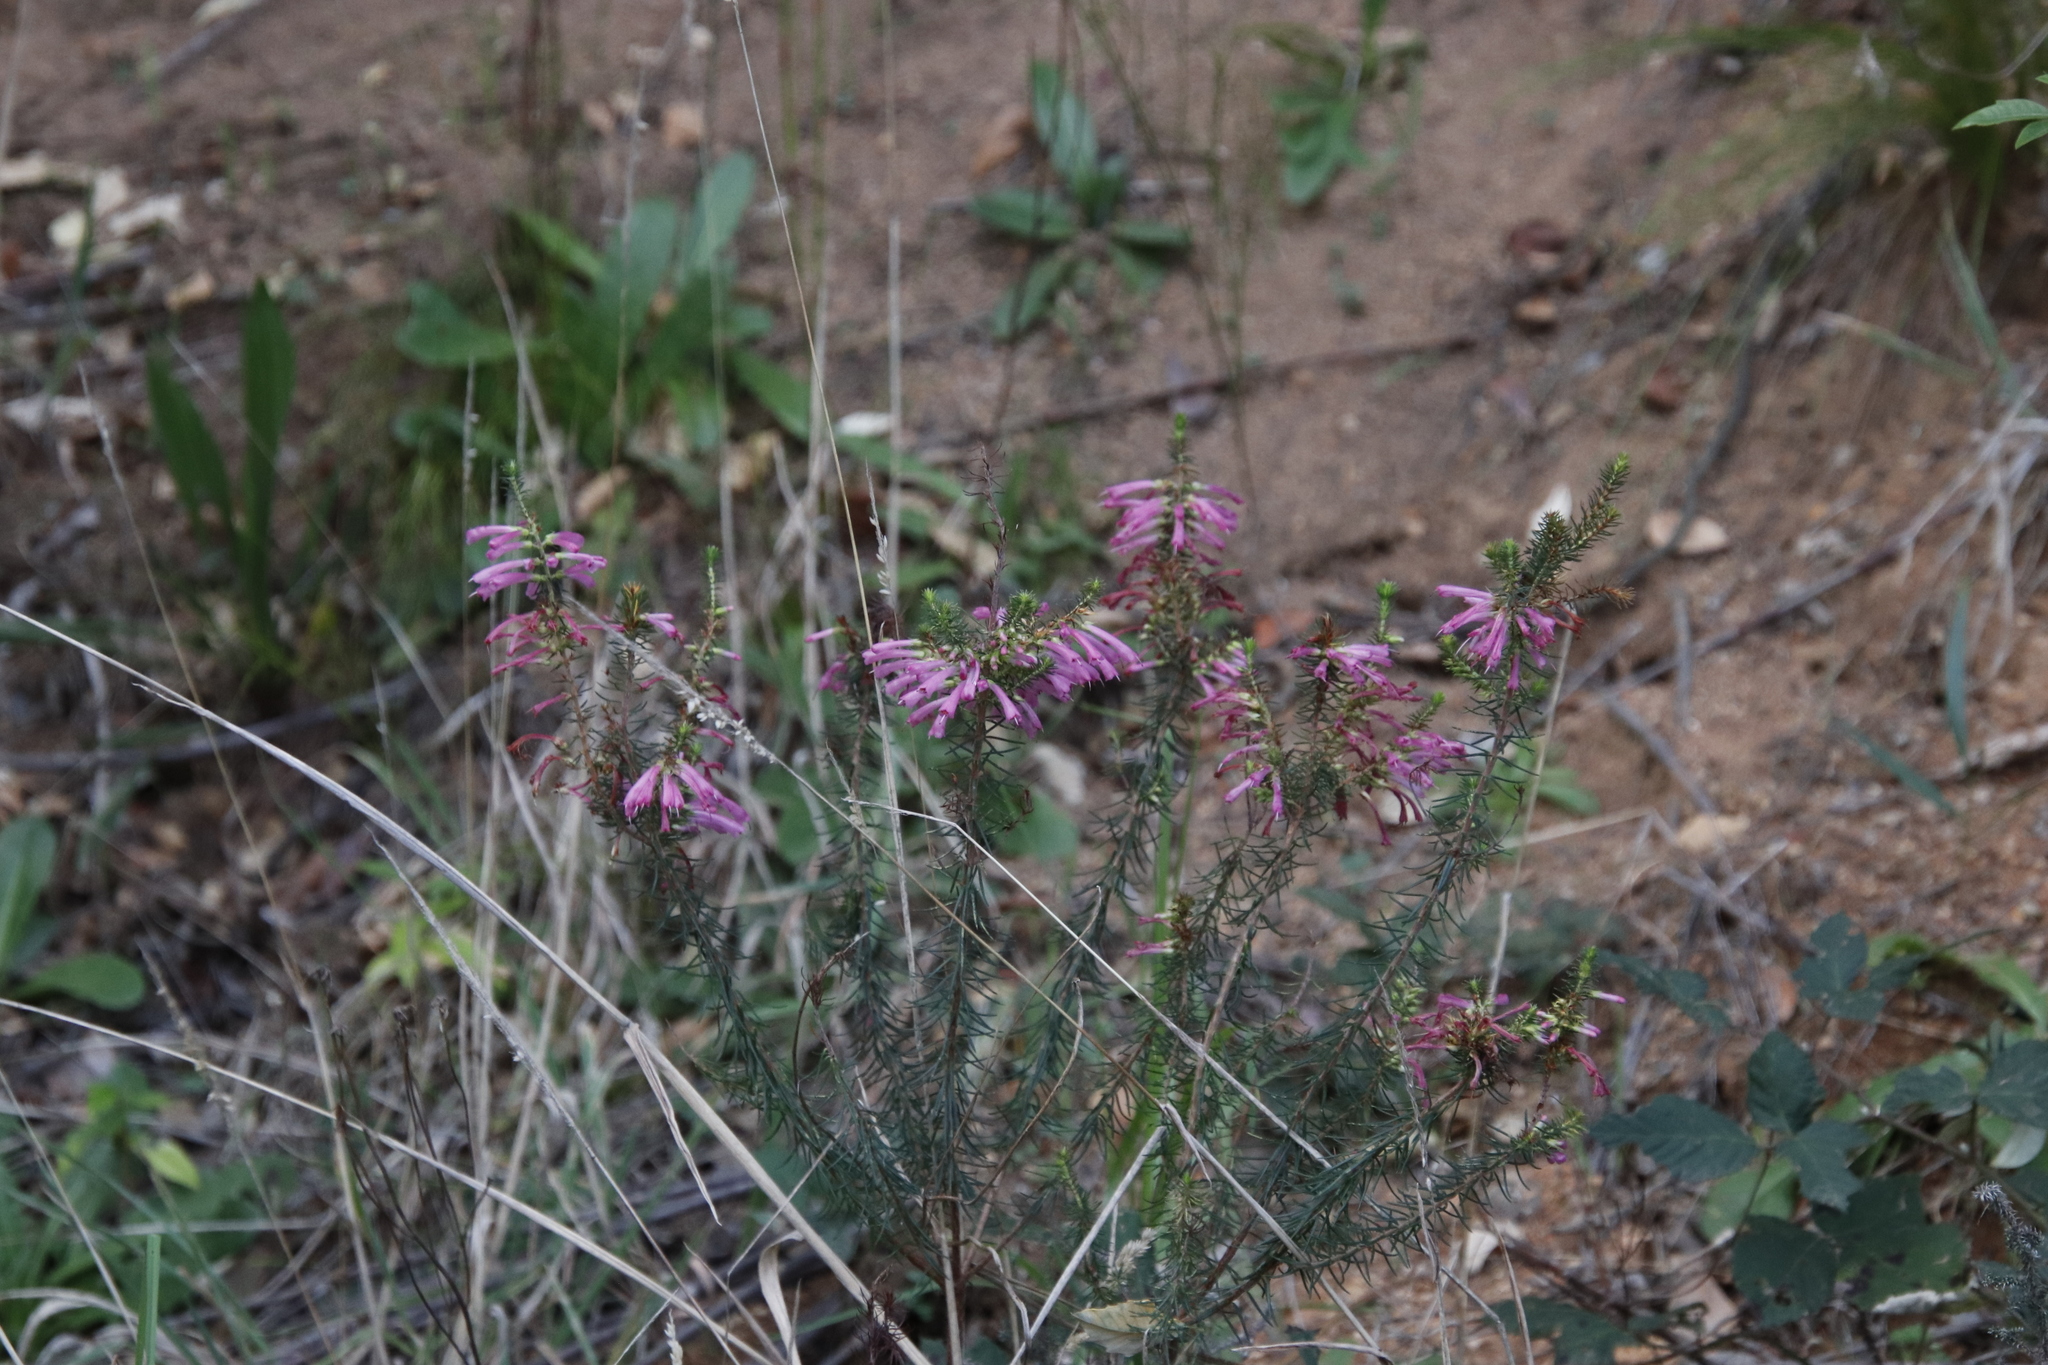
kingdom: Plantae
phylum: Tracheophyta
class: Magnoliopsida
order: Ericales
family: Ericaceae
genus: Erica
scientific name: Erica abietina
